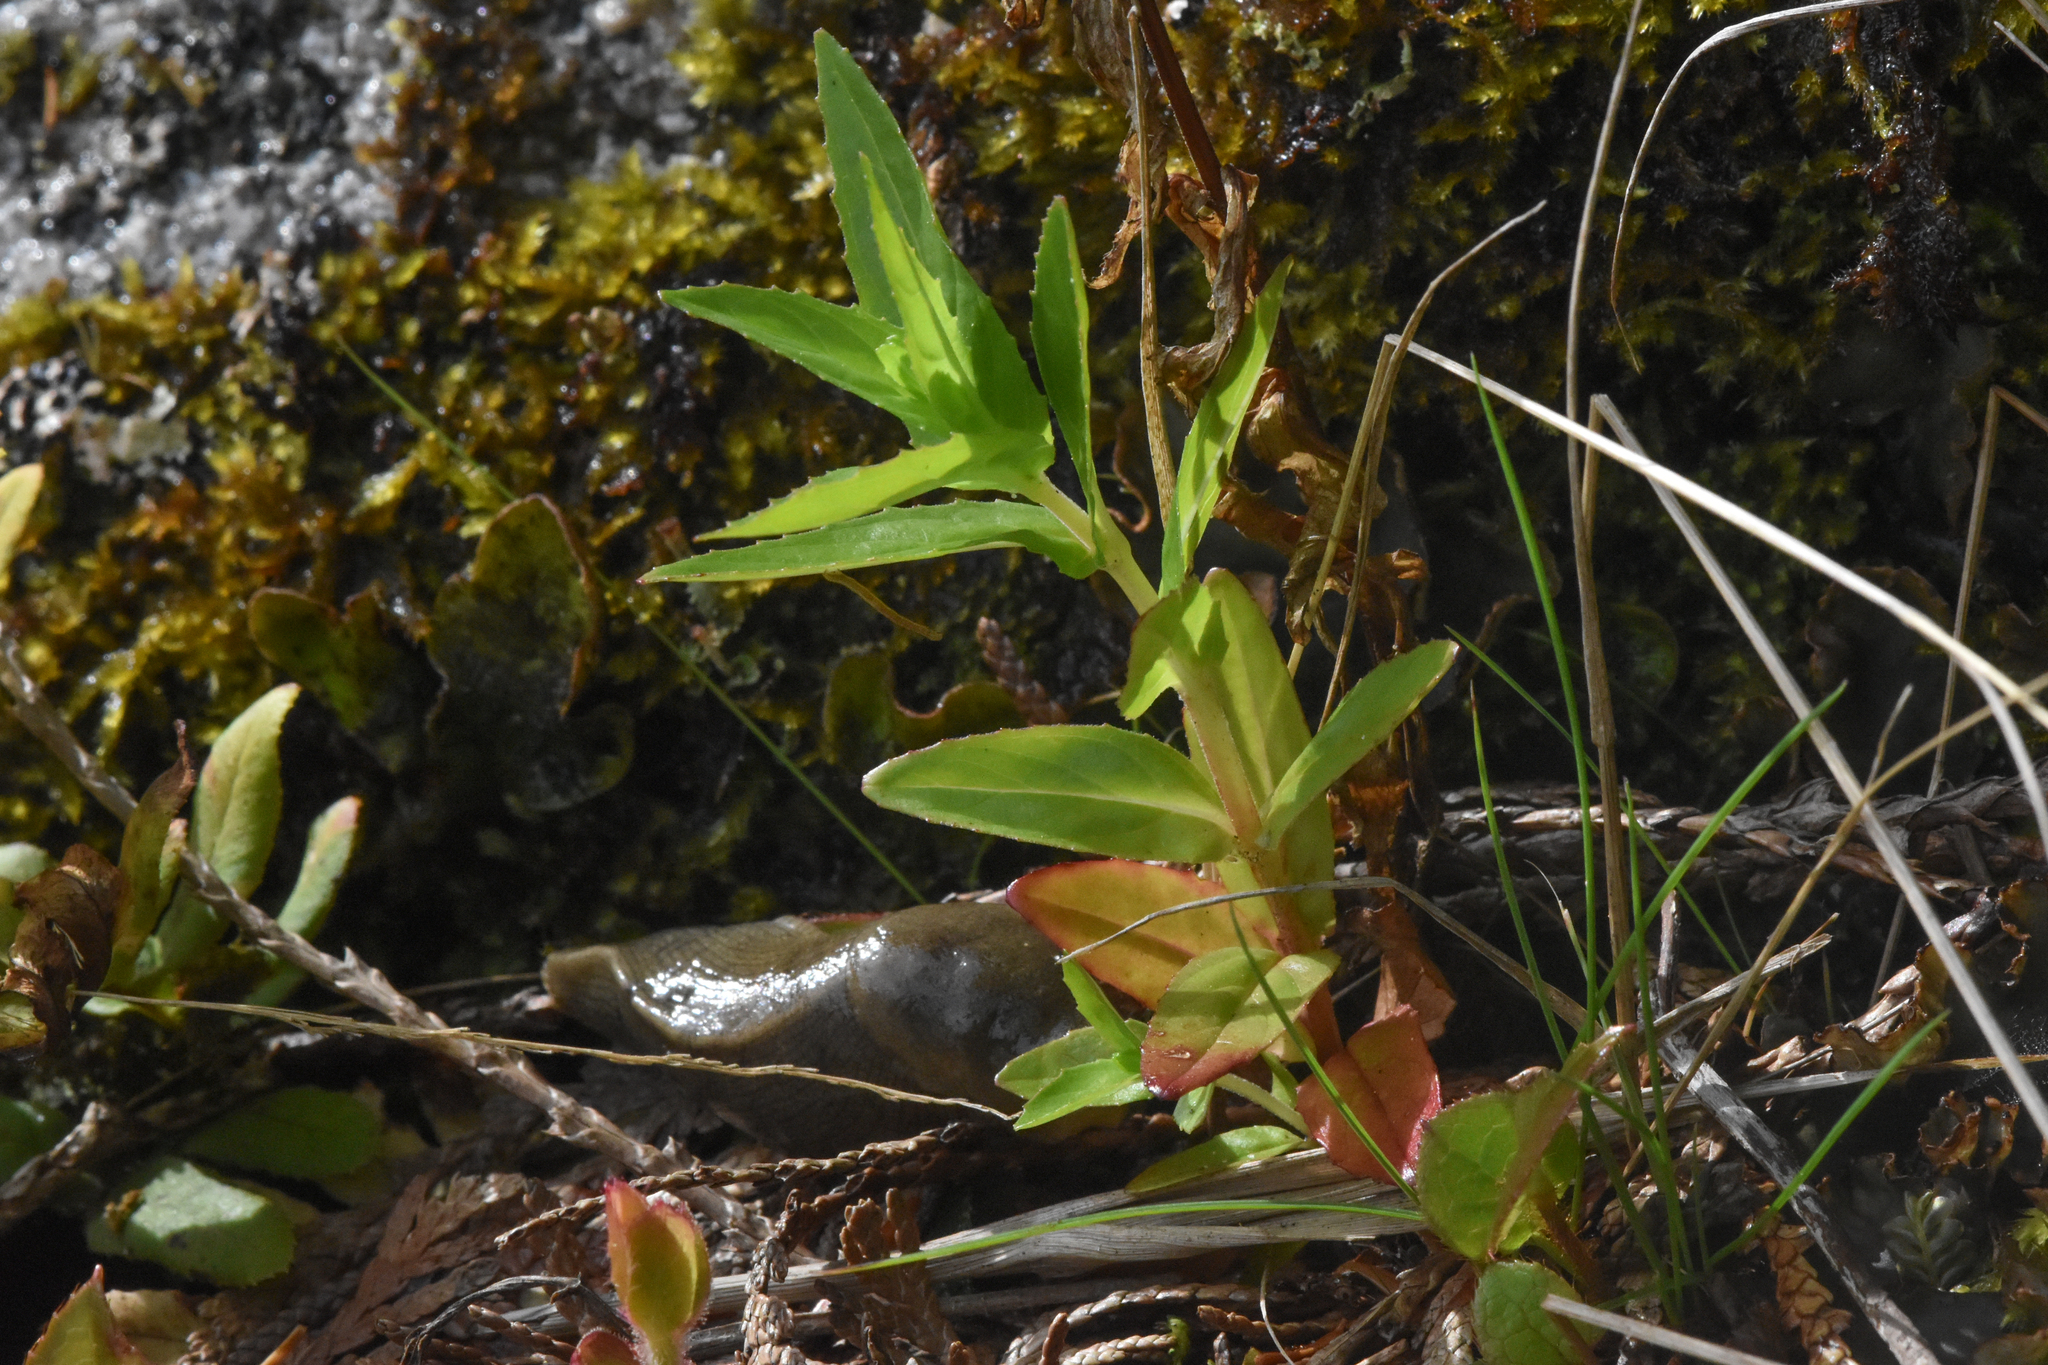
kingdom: Plantae
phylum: Tracheophyta
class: Magnoliopsida
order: Myrtales
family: Onagraceae
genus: Epilobium
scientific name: Epilobium ciliatum
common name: American willowherb
